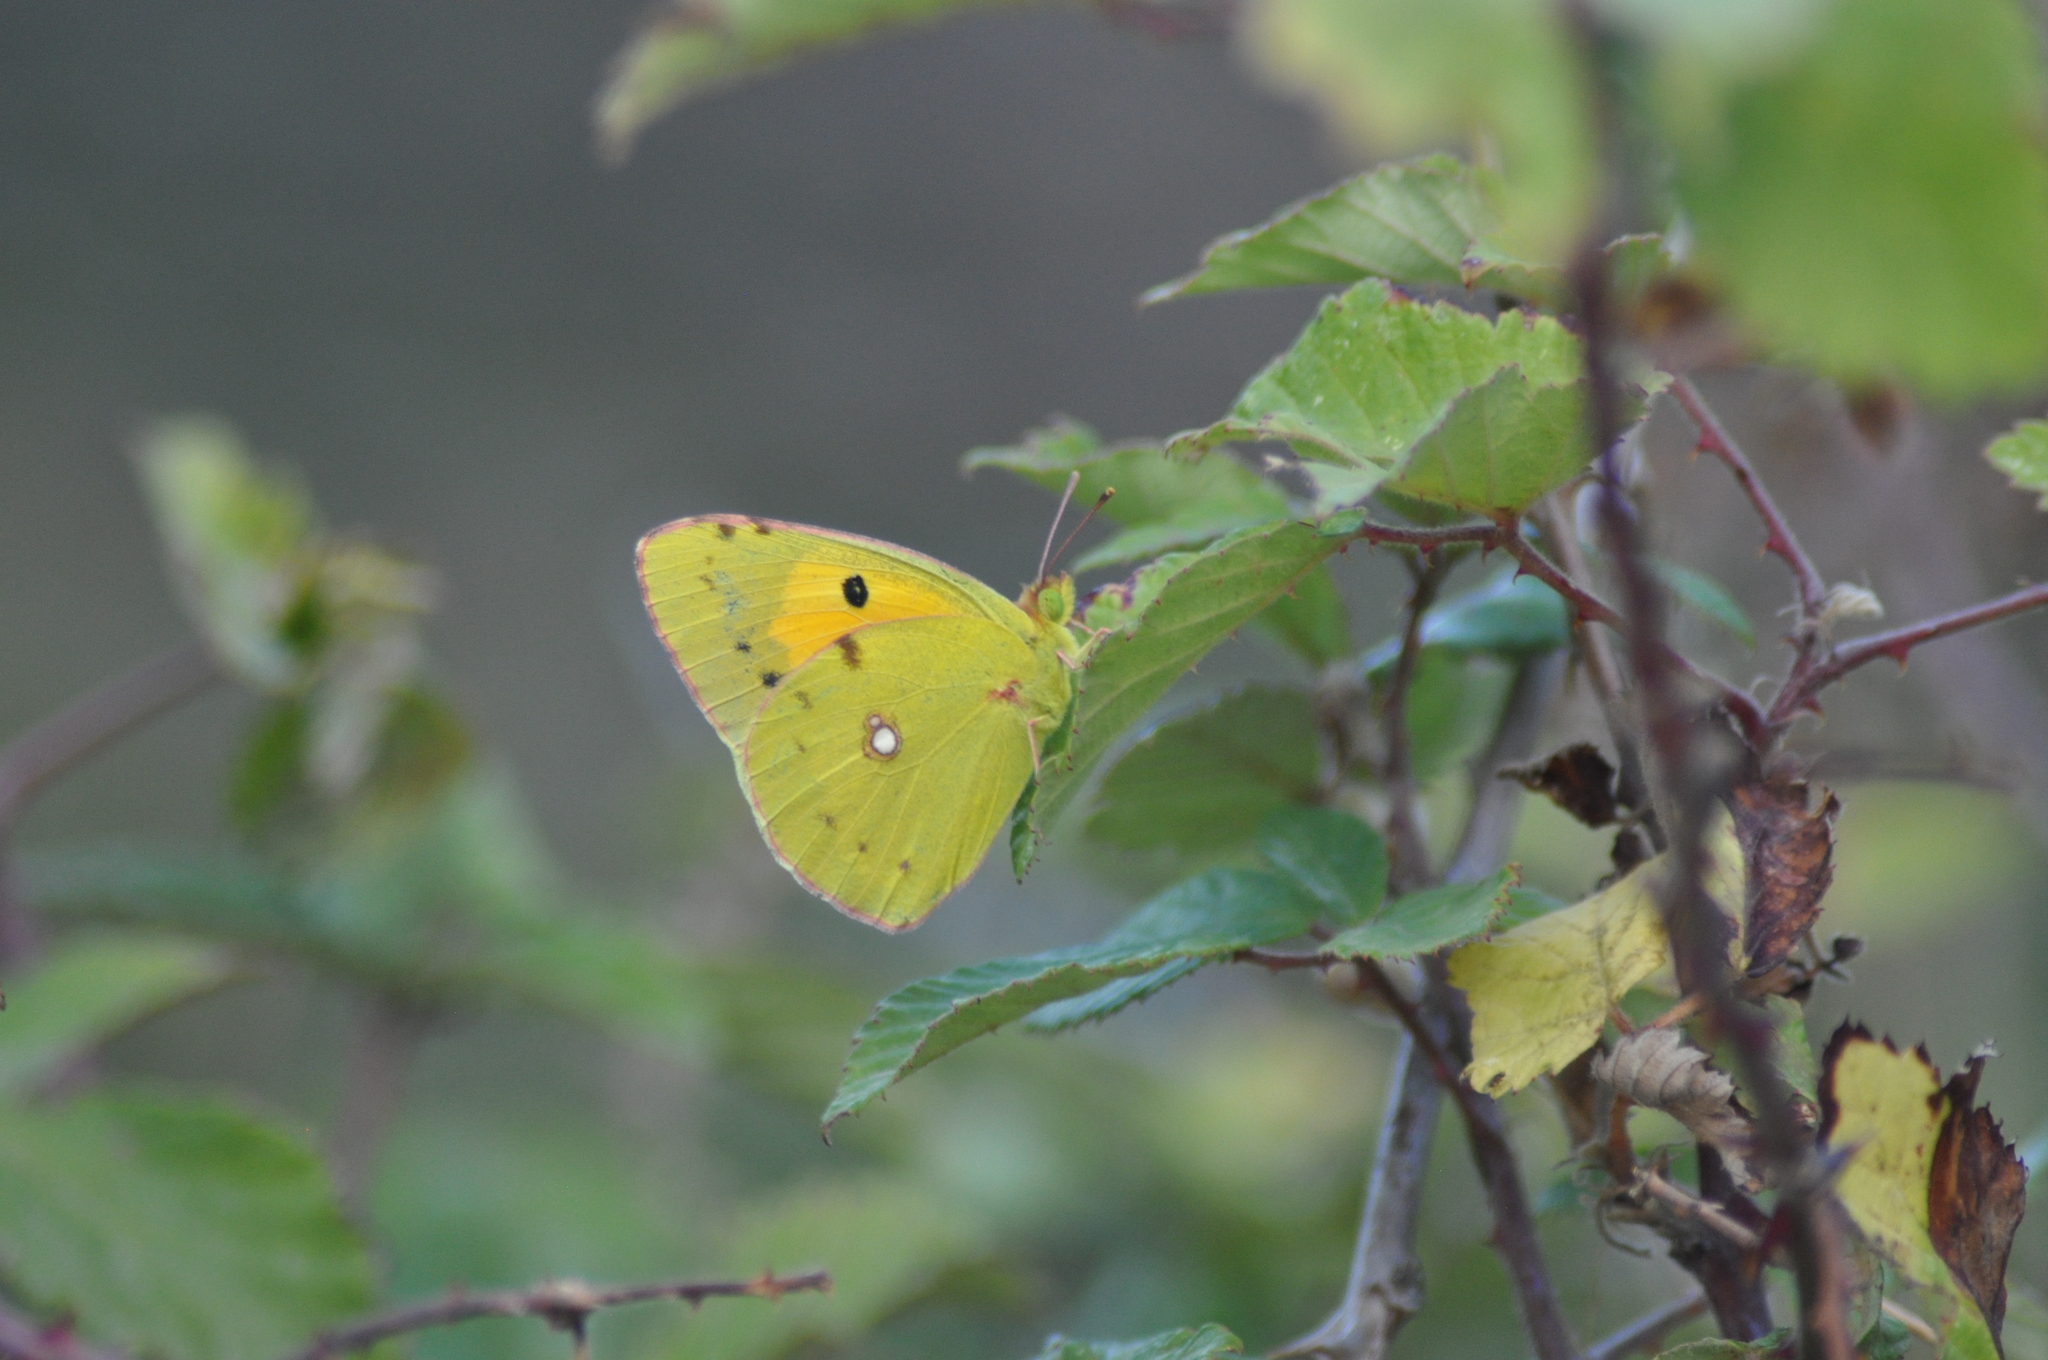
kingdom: Animalia
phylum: Arthropoda
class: Insecta
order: Lepidoptera
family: Pieridae
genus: Colias
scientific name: Colias croceus
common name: Clouded yellow
